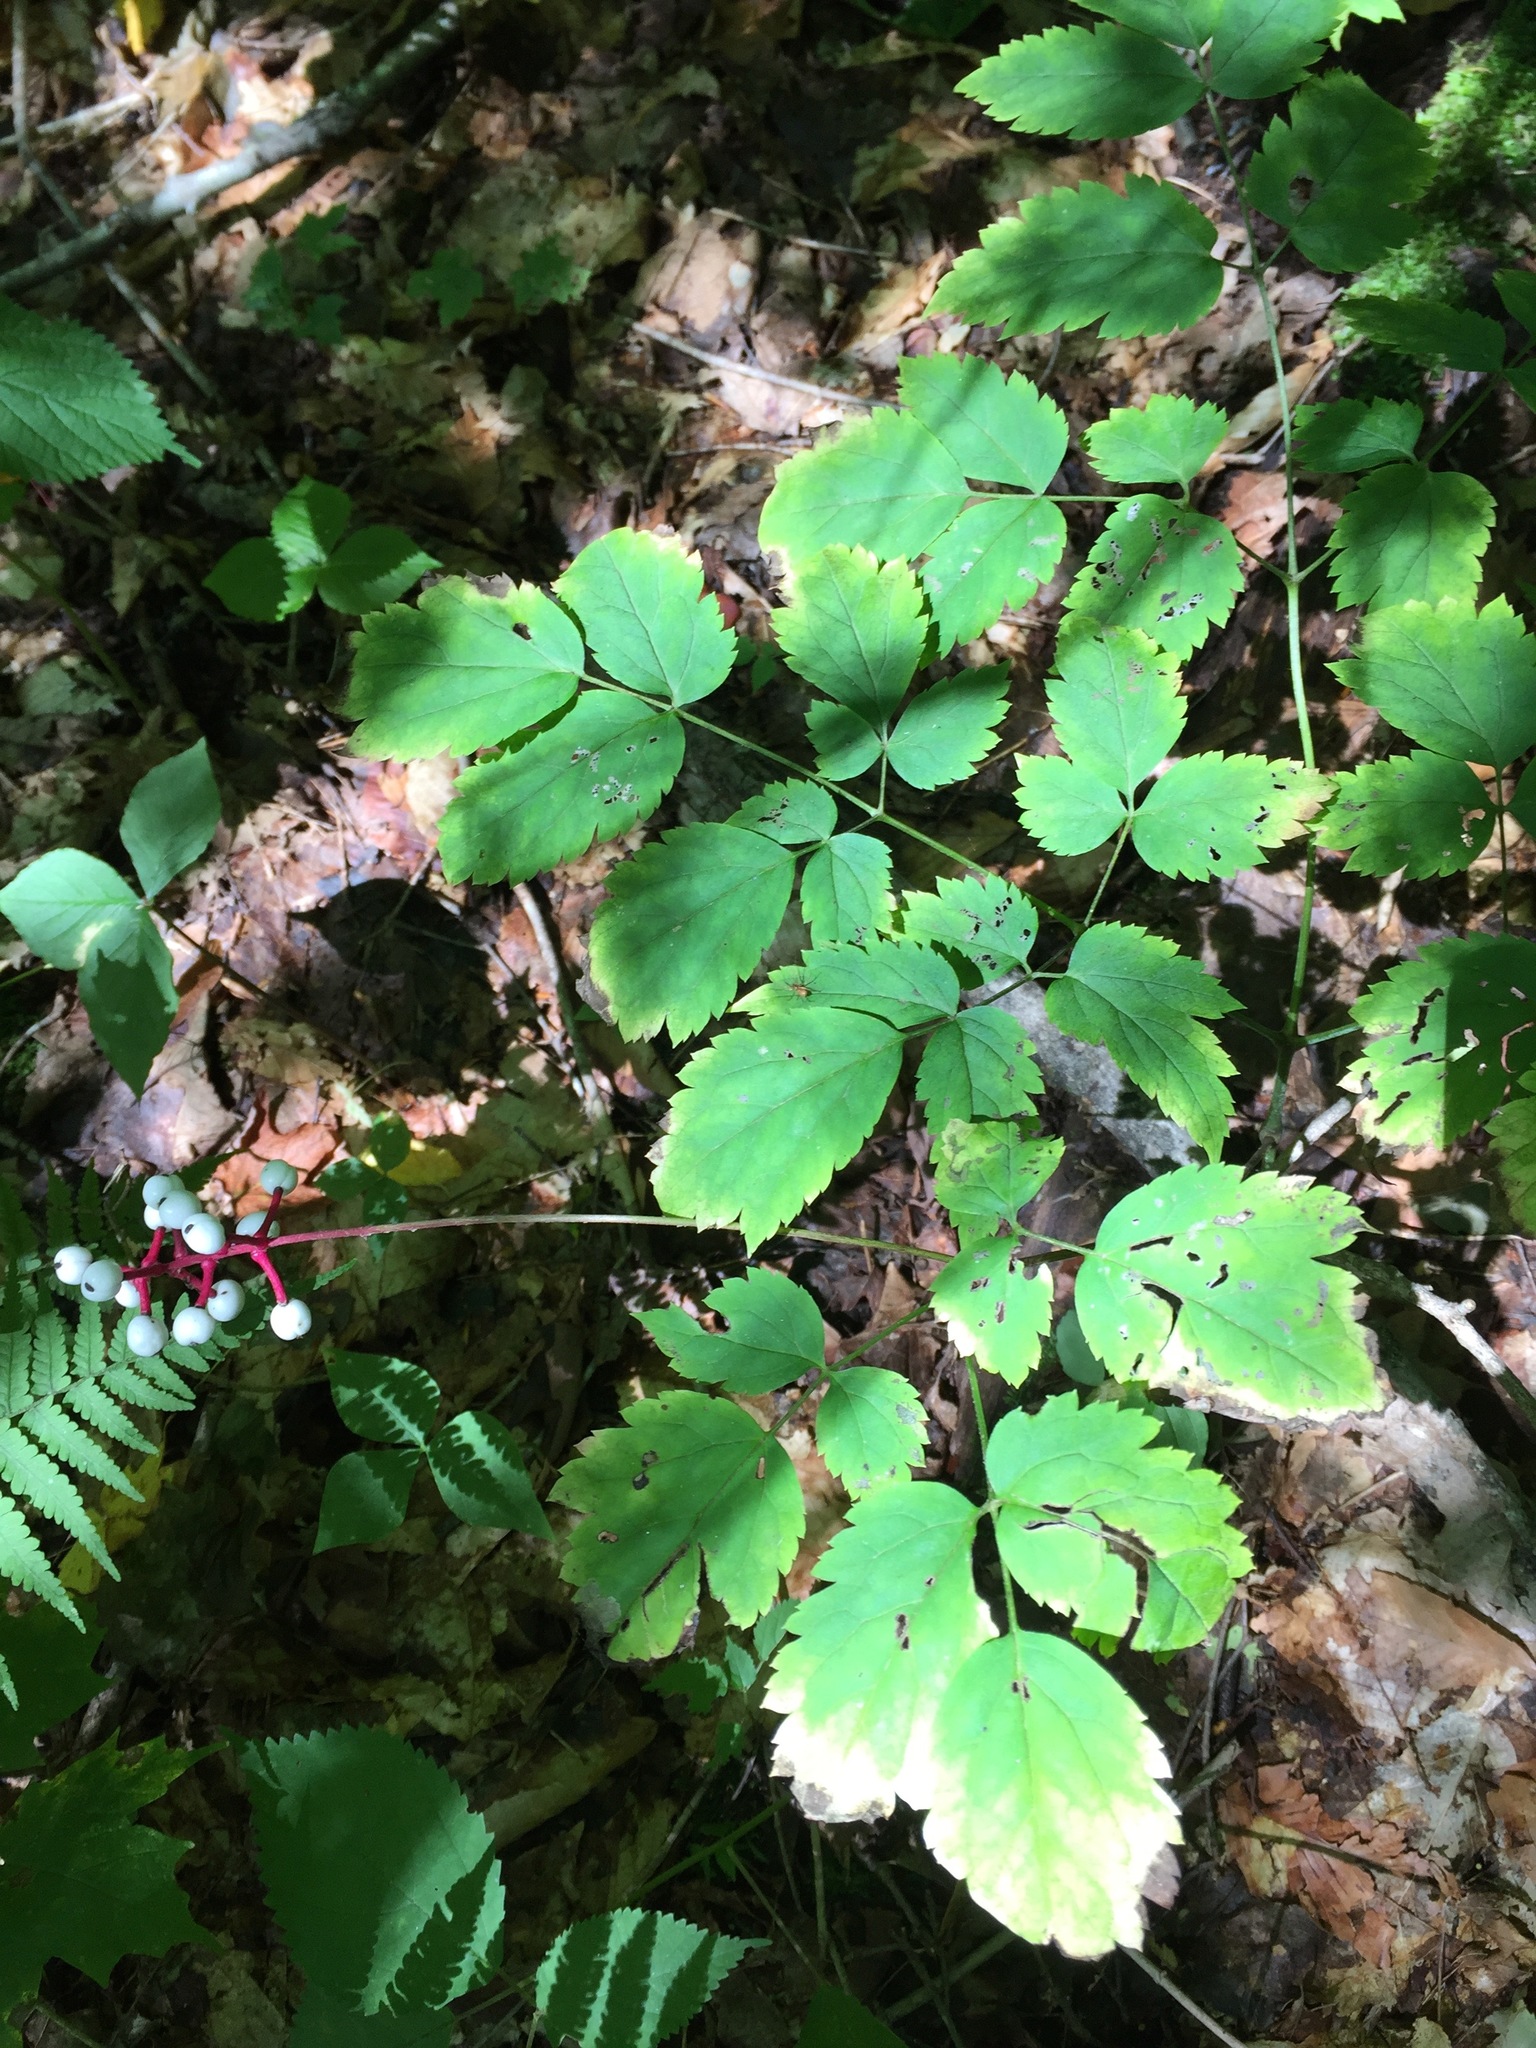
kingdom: Plantae
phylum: Tracheophyta
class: Magnoliopsida
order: Ranunculales
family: Ranunculaceae
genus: Actaea
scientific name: Actaea pachypoda
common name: Doll's-eyes
